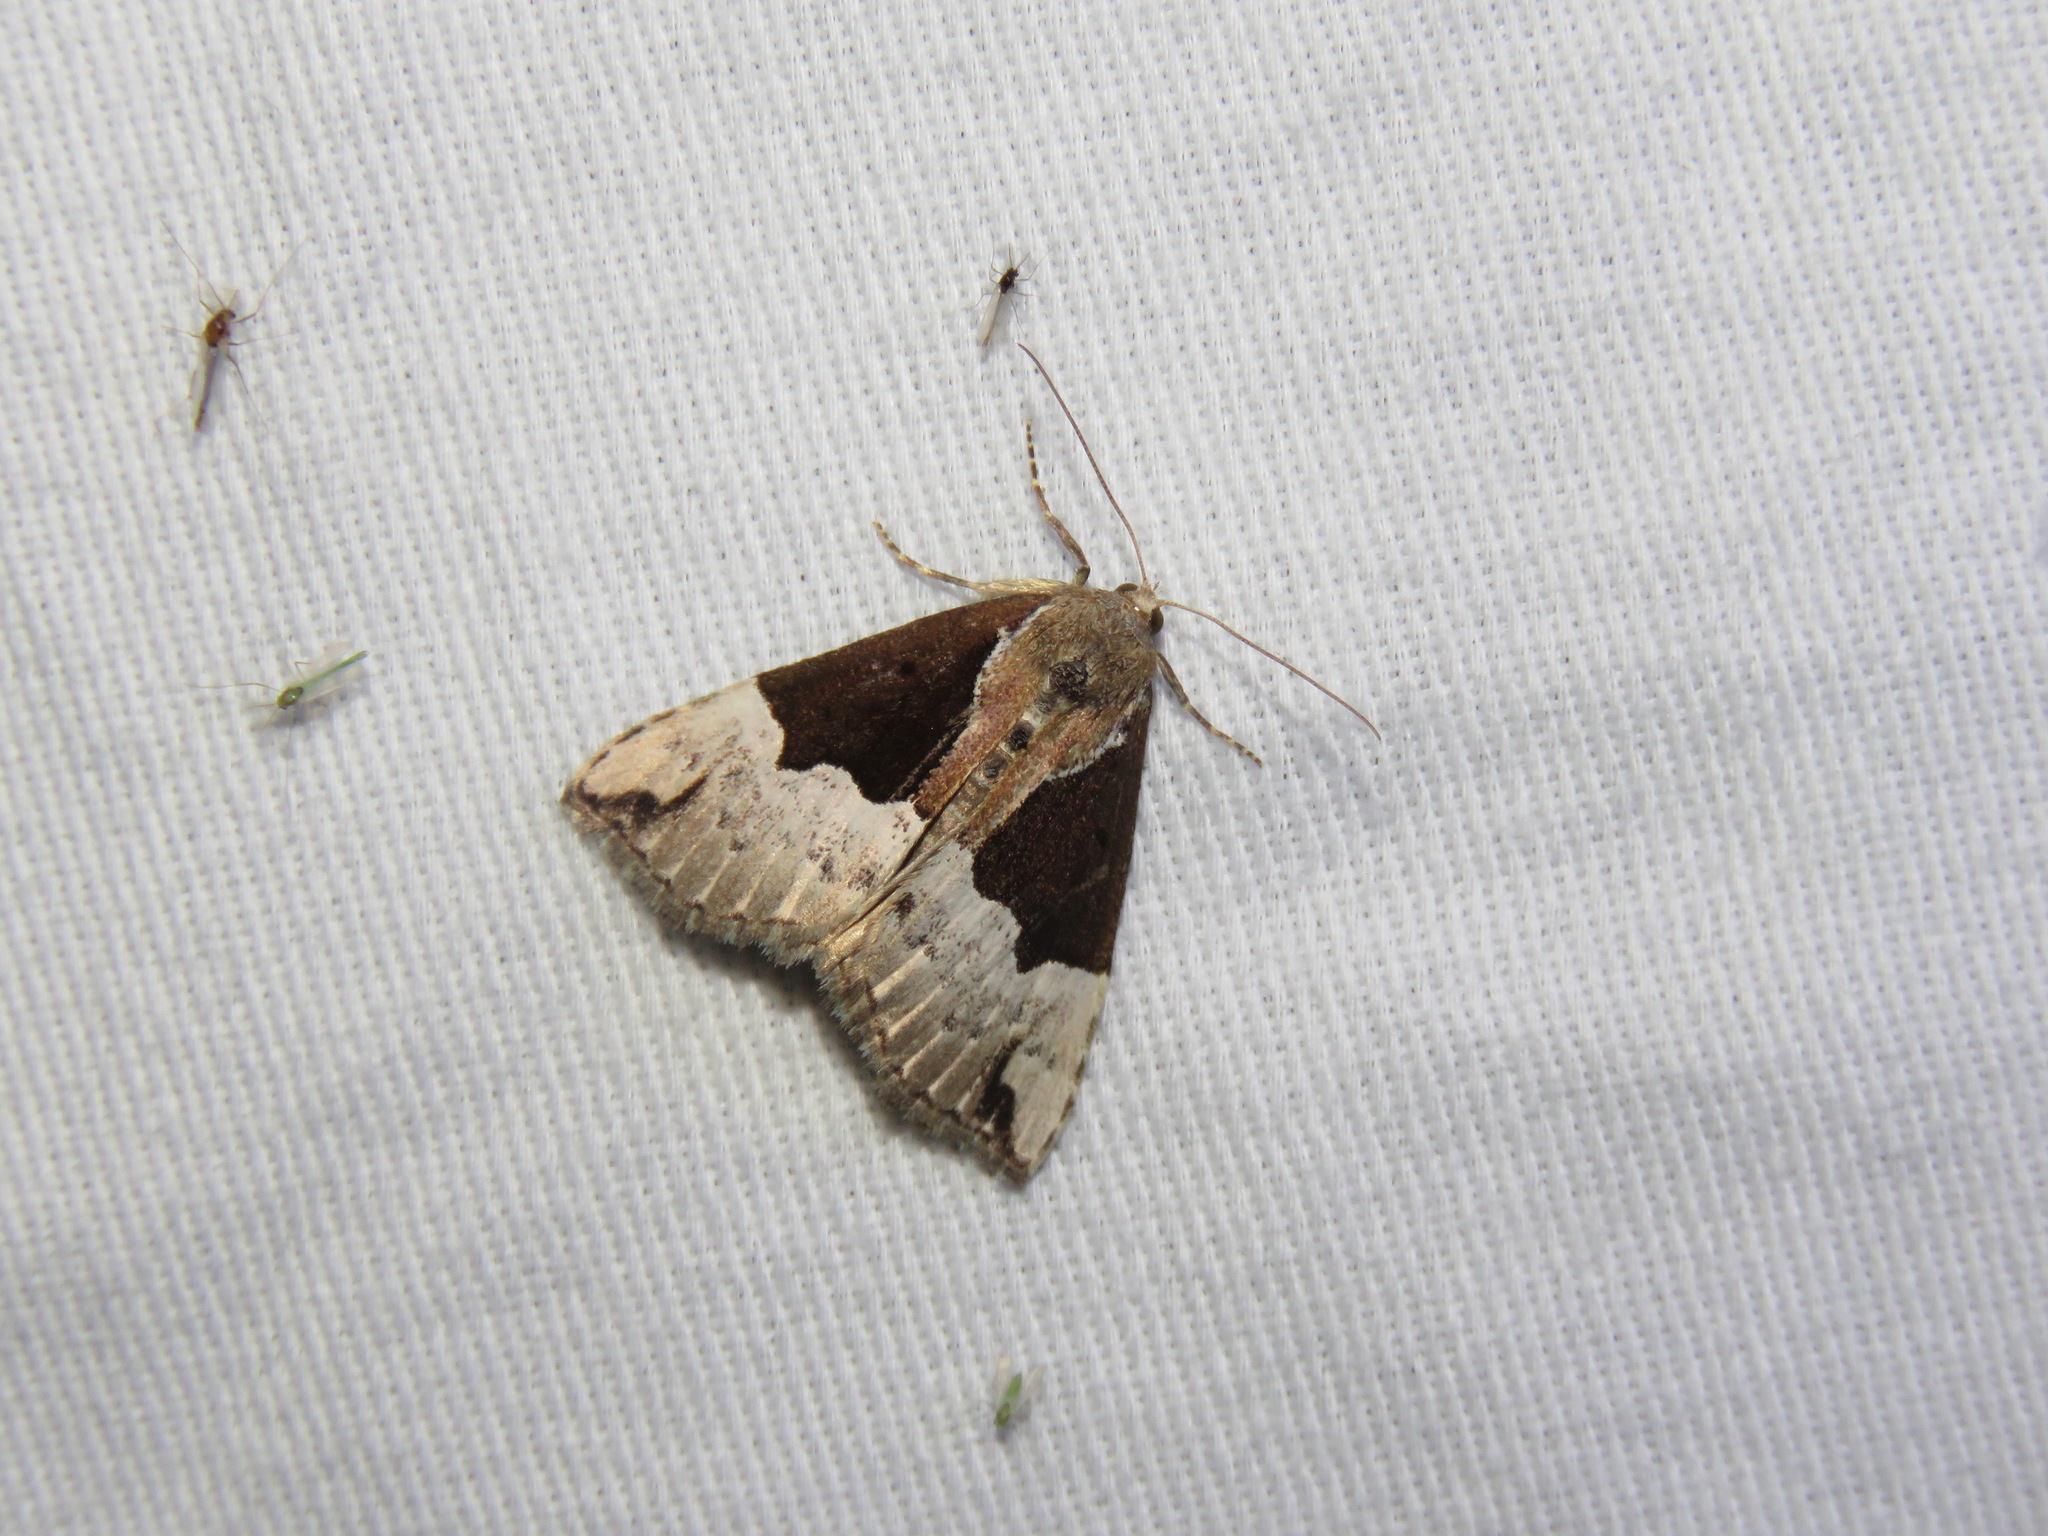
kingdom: Animalia
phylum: Arthropoda
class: Insecta
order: Lepidoptera
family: Erebidae
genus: Hypena
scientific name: Hypena bijugalis
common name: Dimorphic bomolocha moth
